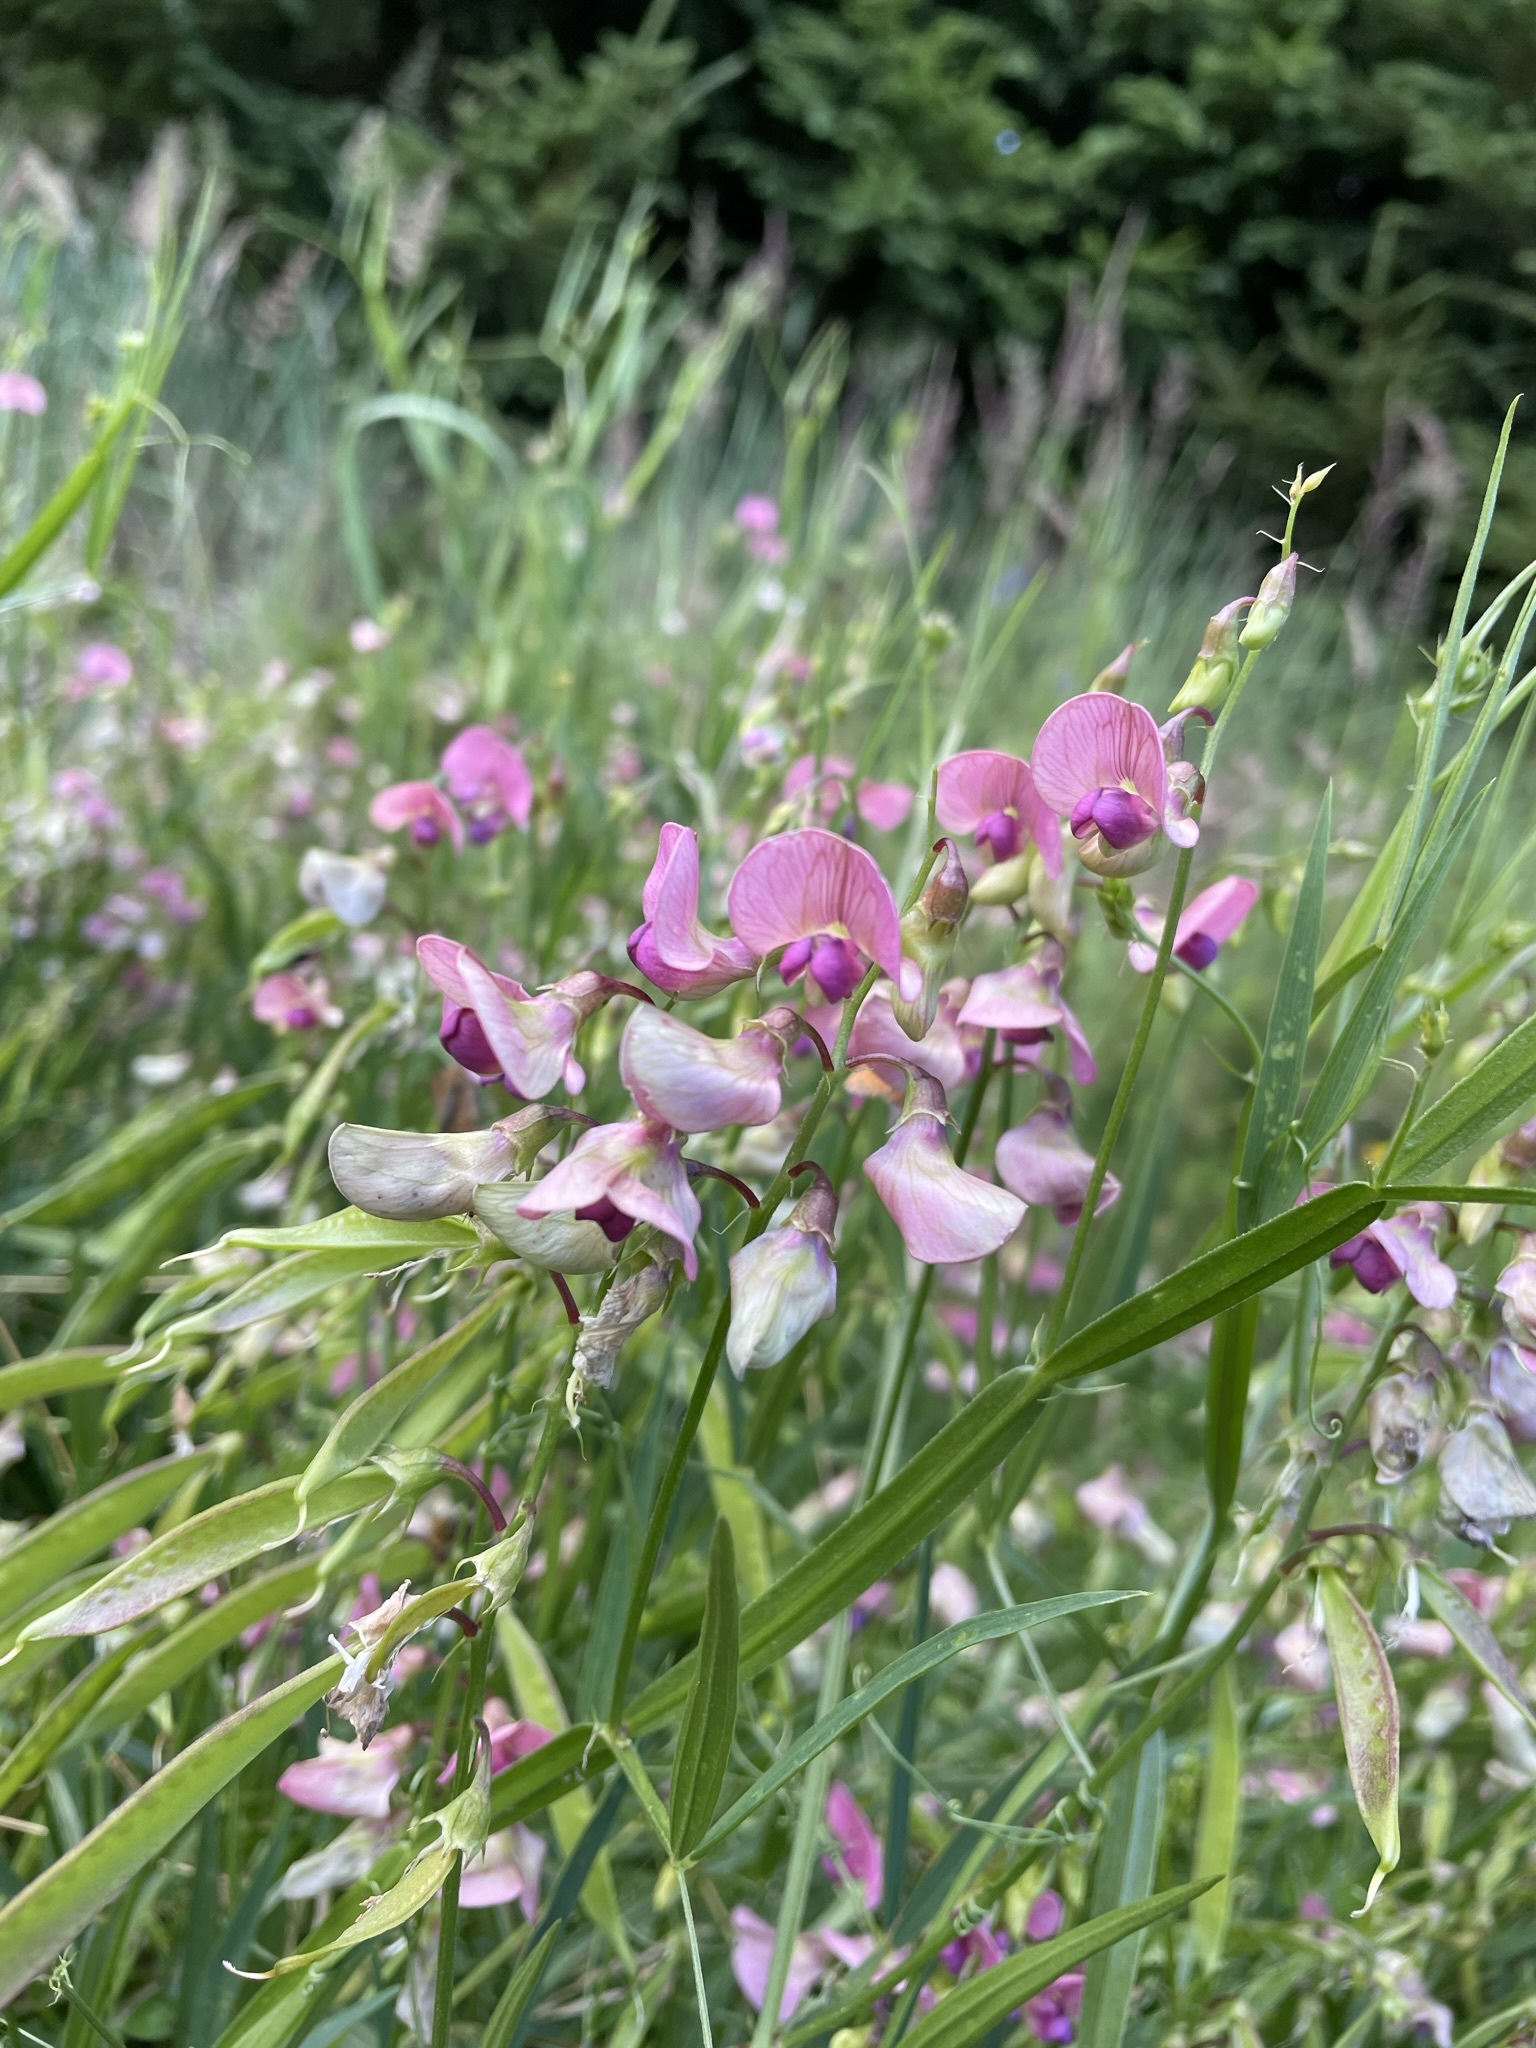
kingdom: Plantae
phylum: Tracheophyta
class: Magnoliopsida
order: Fabales
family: Fabaceae
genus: Lathyrus
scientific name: Lathyrus sylvestris
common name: Flat pea
